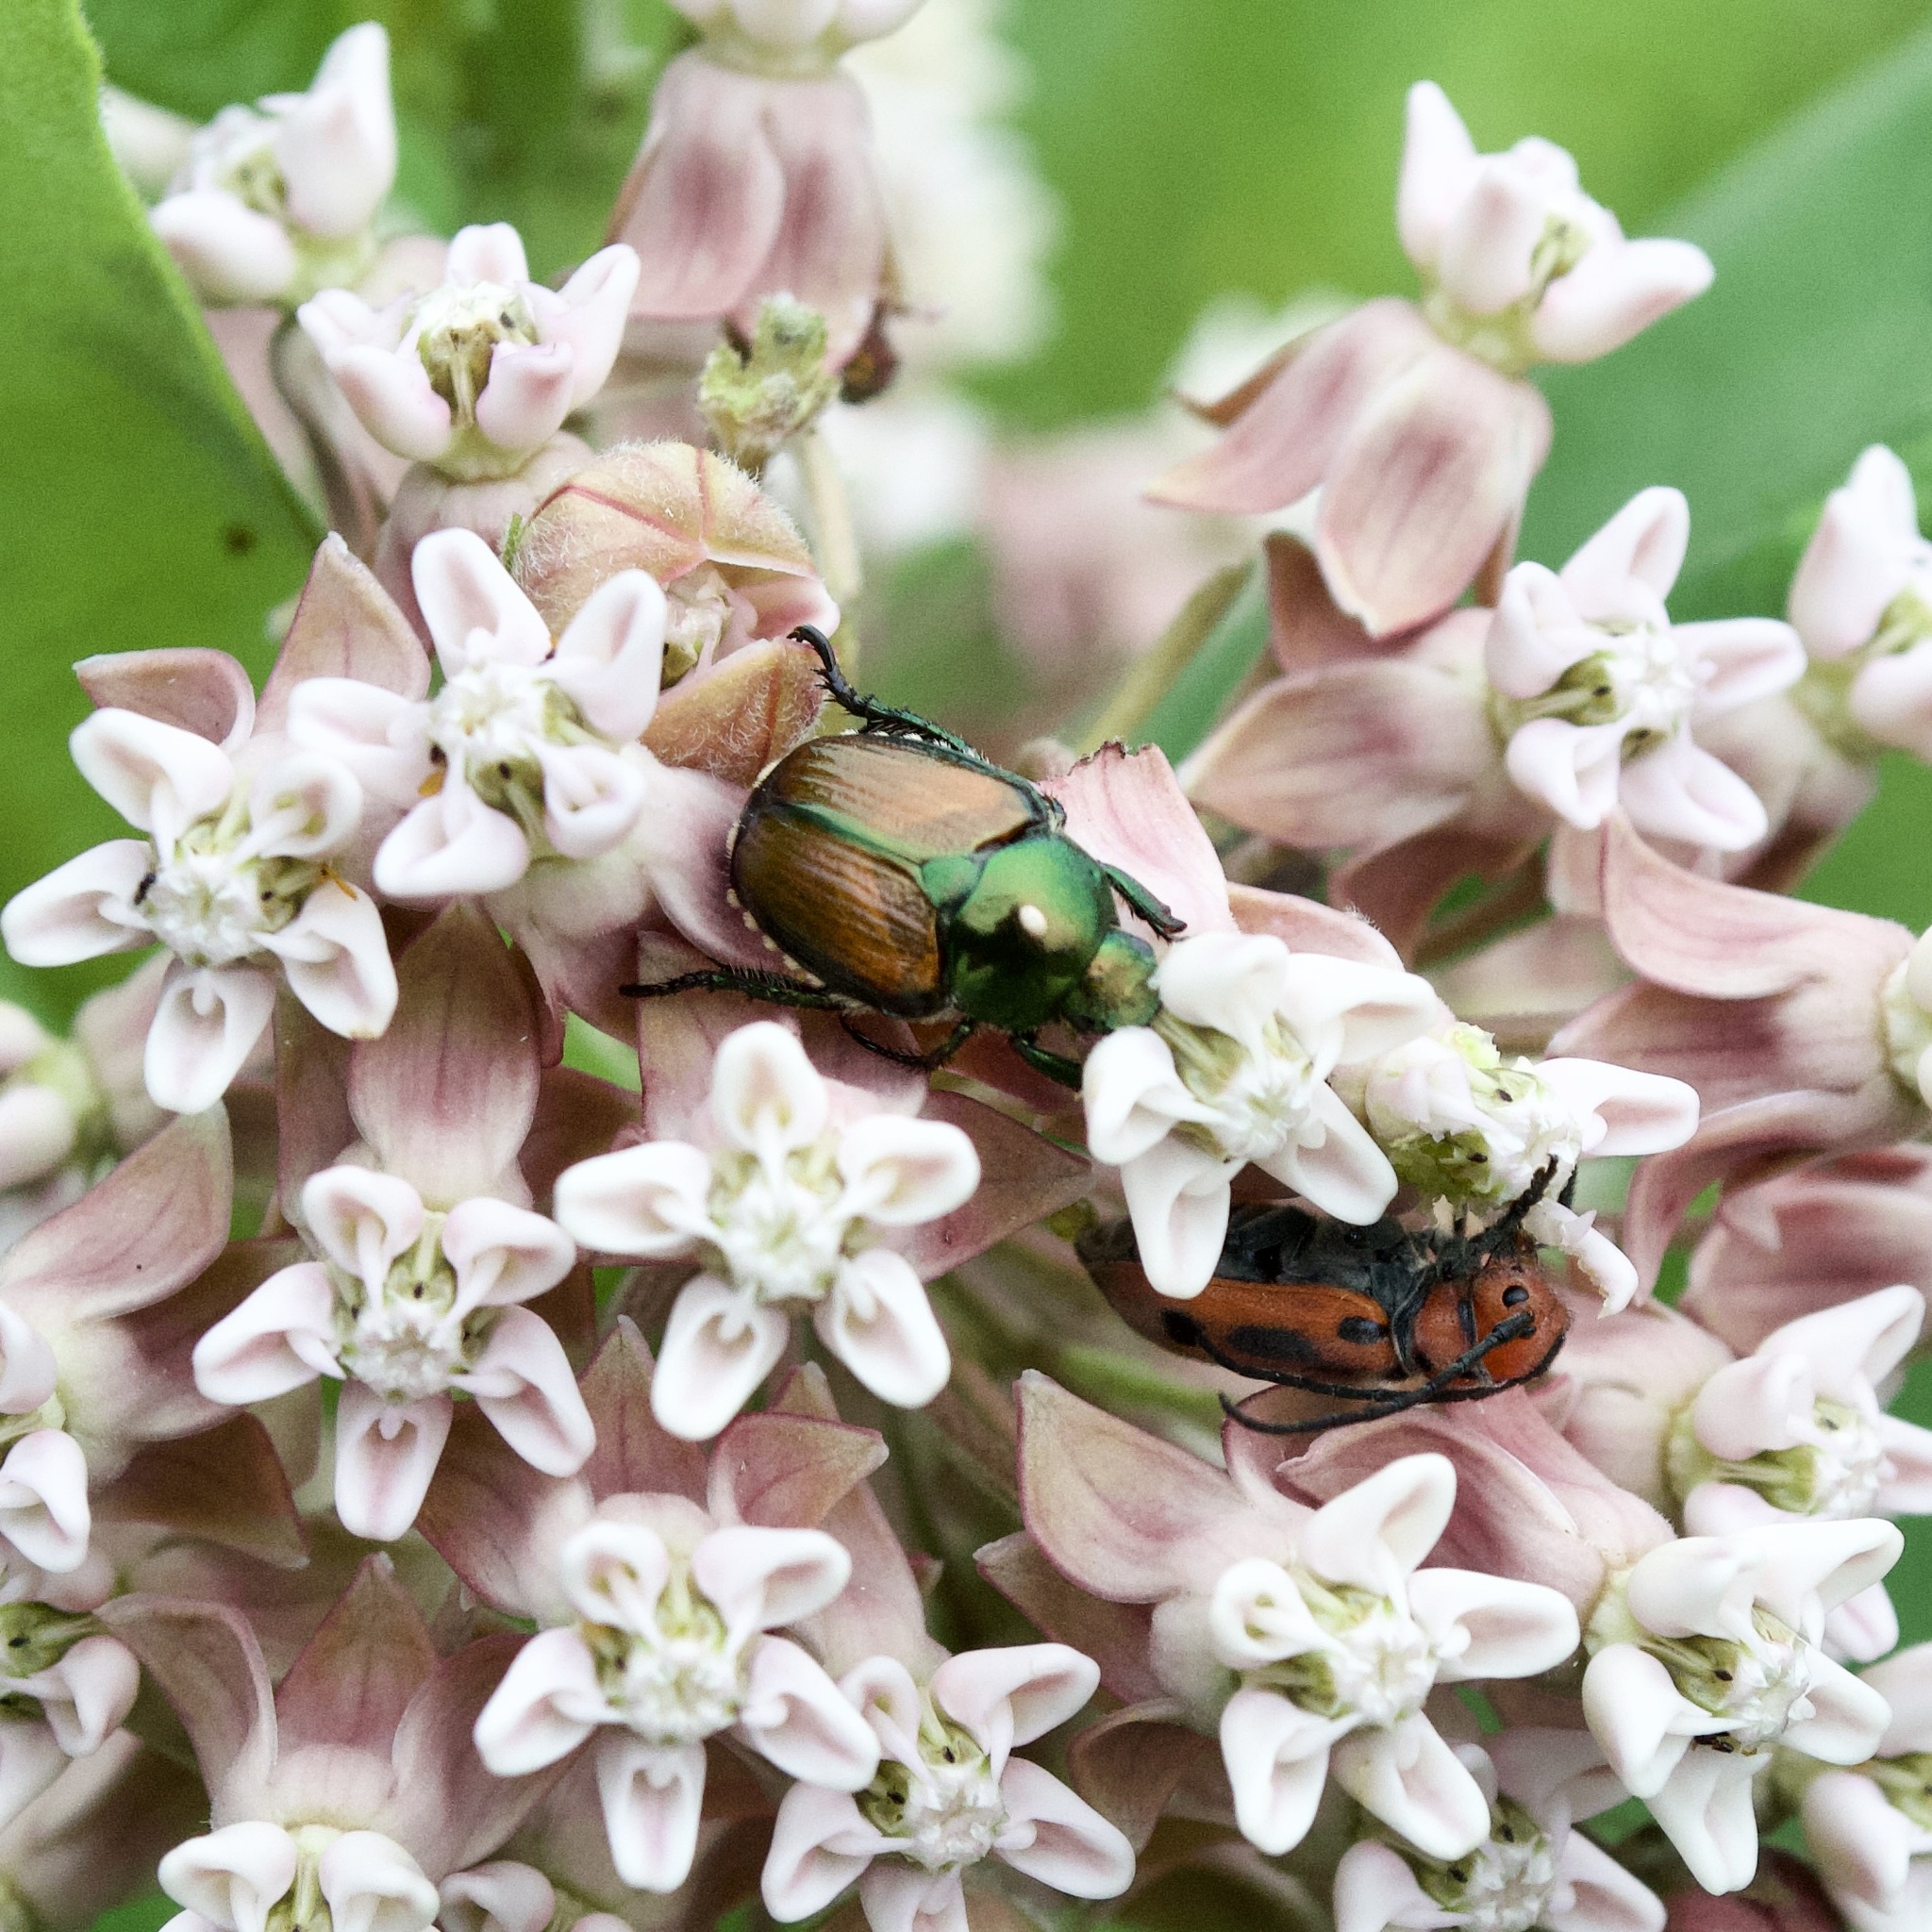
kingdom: Animalia
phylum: Arthropoda
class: Insecta
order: Diptera
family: Tachinidae
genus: Istocheta
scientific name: Istocheta aldrichi
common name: Parasitic wasp
